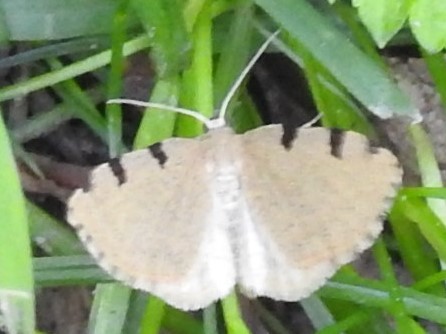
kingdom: Animalia
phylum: Arthropoda
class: Insecta
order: Lepidoptera
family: Geometridae
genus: Heterophleps
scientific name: Heterophleps triguttaria
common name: Three-spotted fillip
